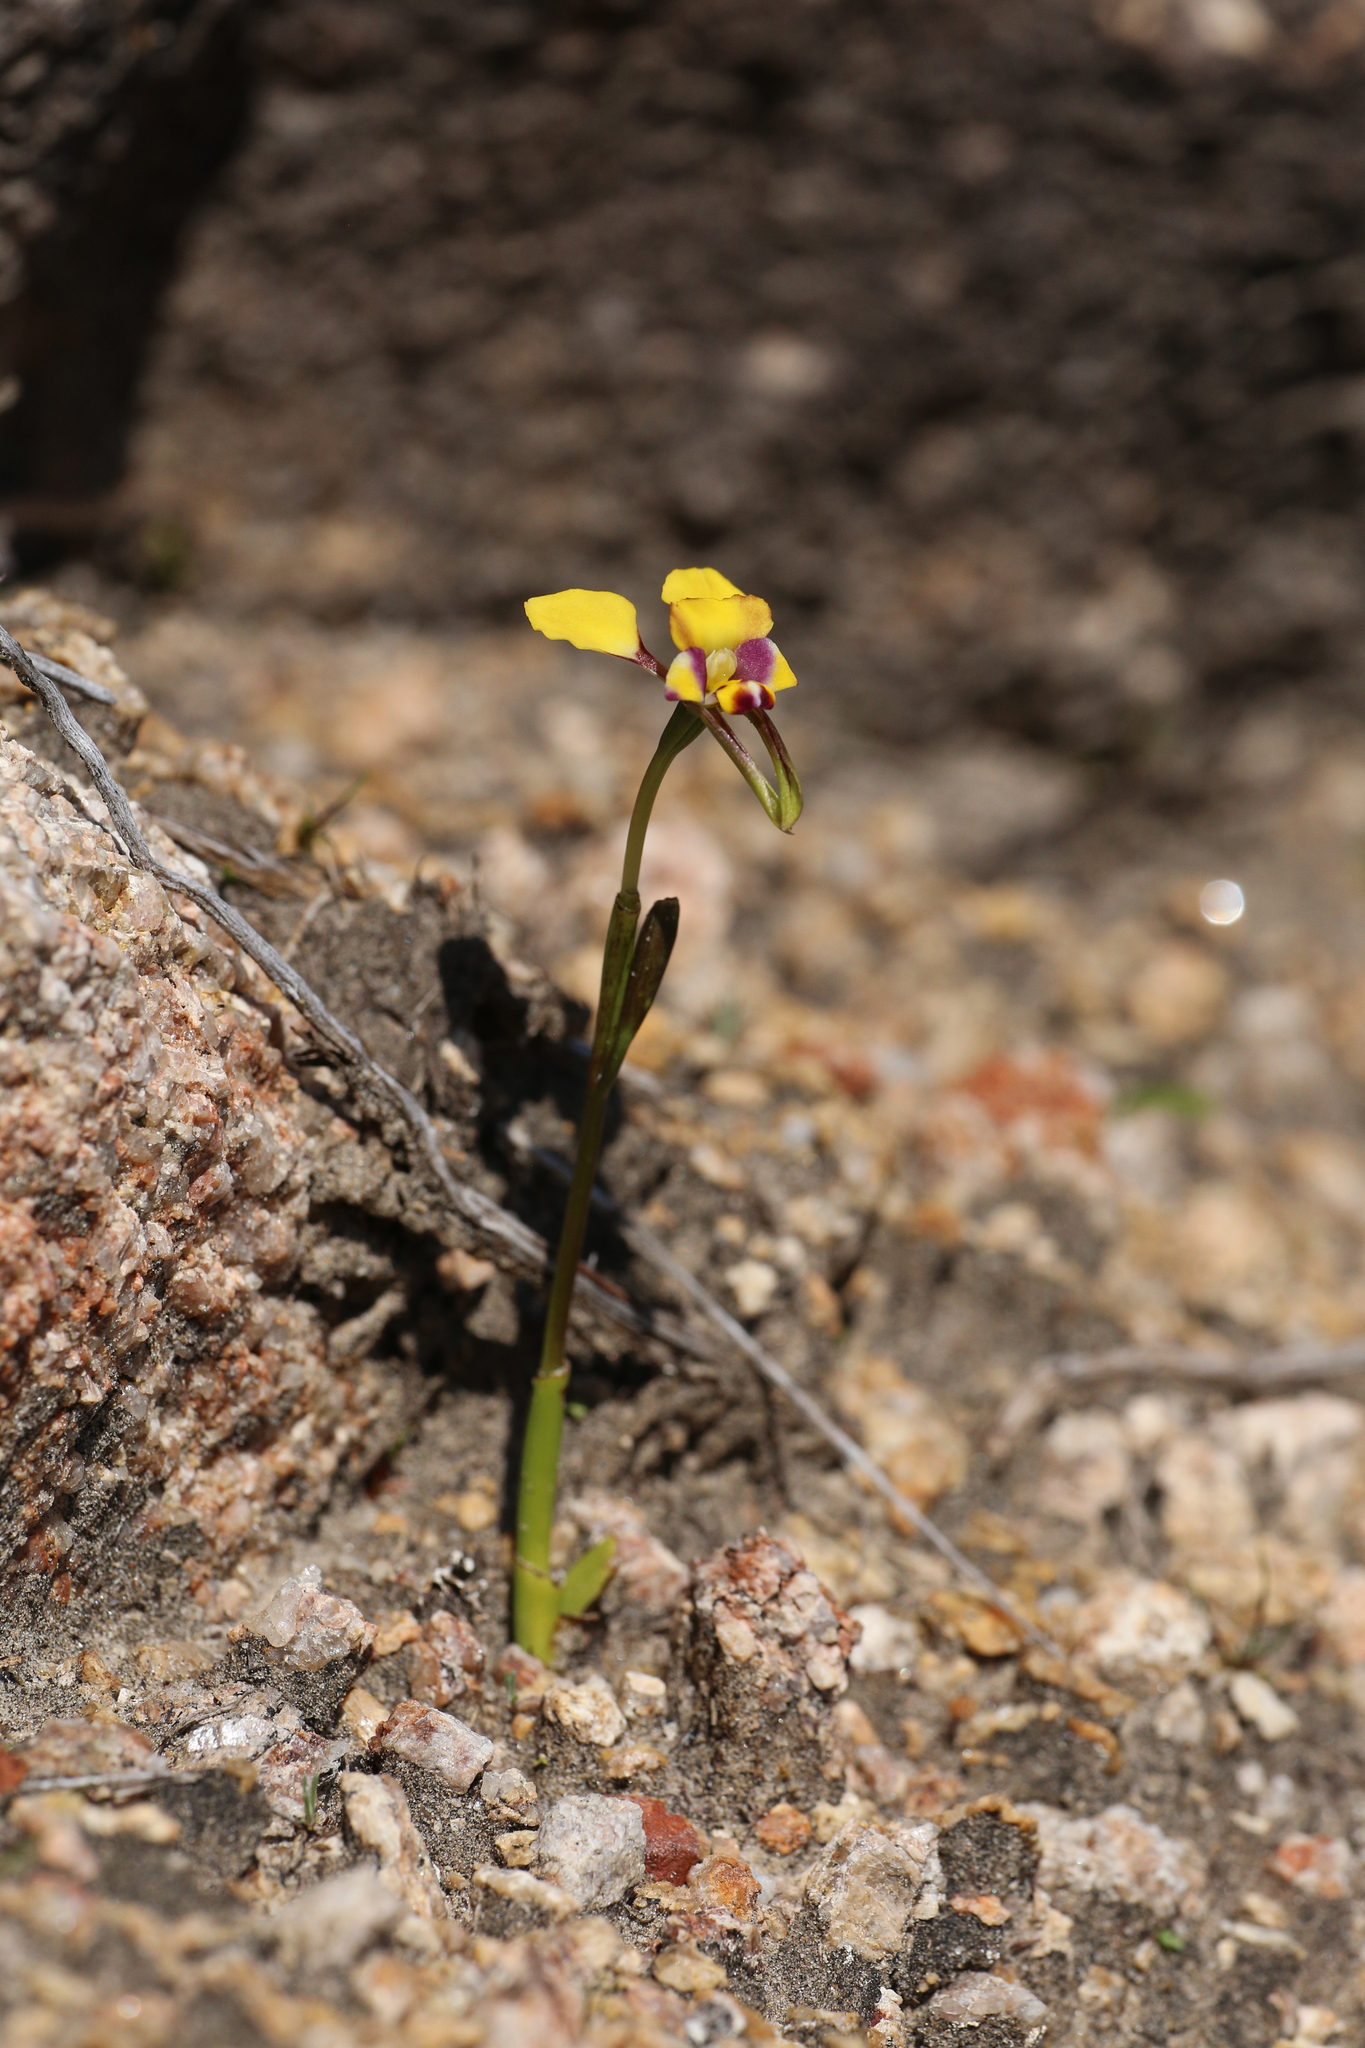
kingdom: Plantae
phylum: Tracheophyta
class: Liliopsida
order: Asparagales
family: Orchidaceae
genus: Diuris
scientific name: Diuris pulchella
